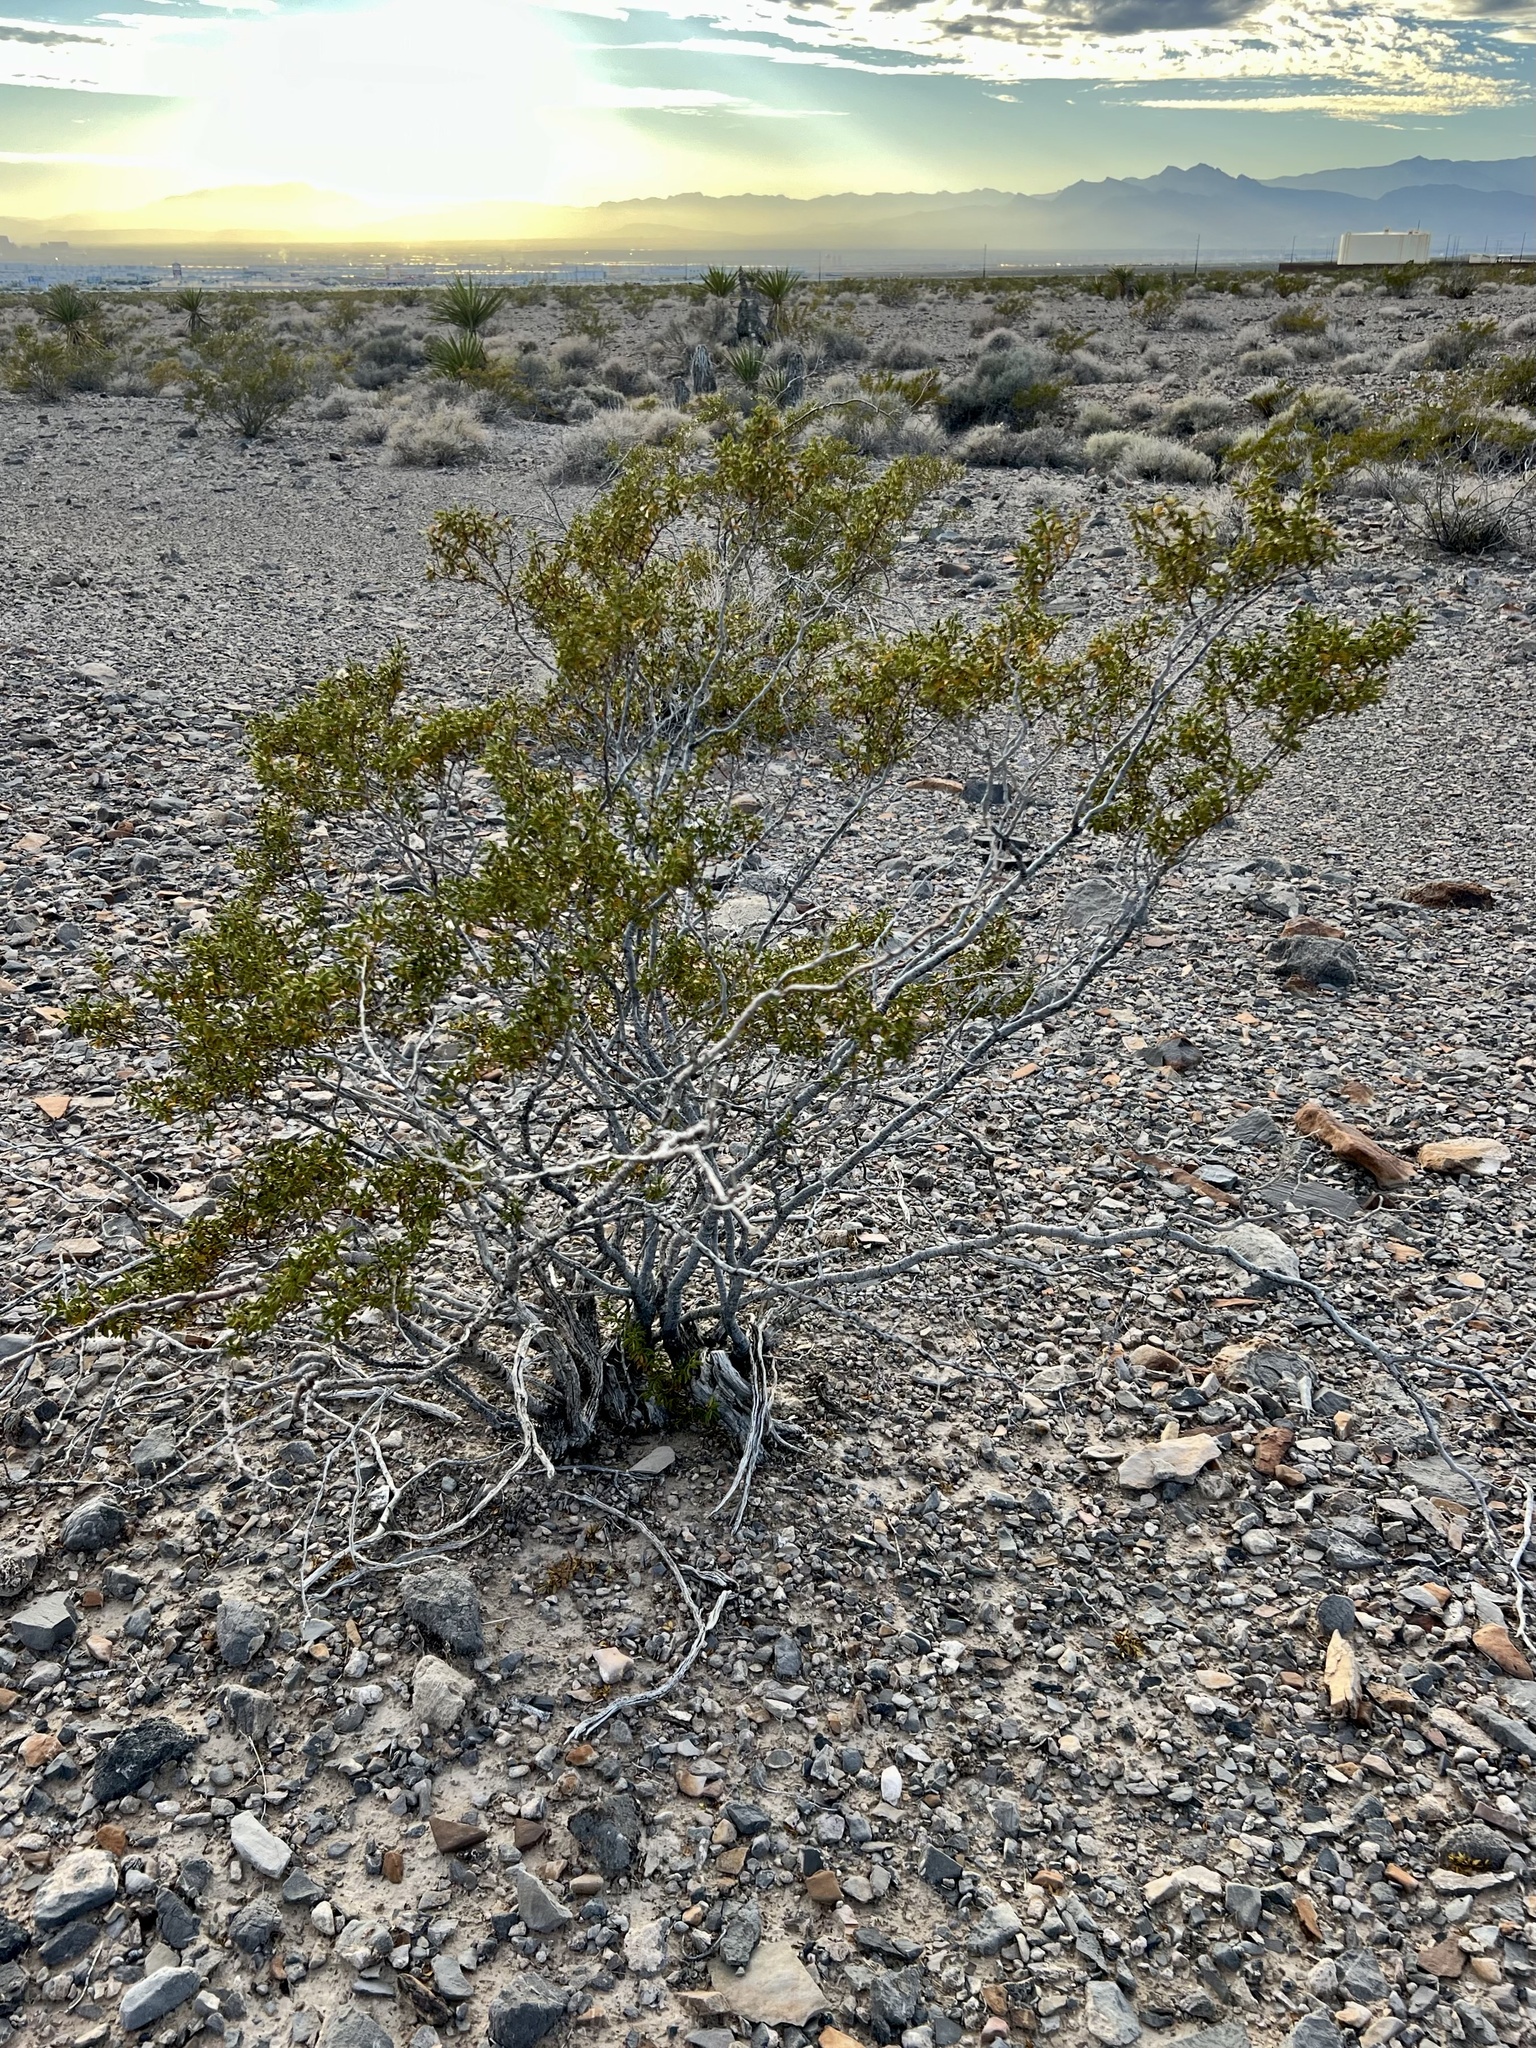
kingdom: Plantae
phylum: Tracheophyta
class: Magnoliopsida
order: Zygophyllales
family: Zygophyllaceae
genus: Larrea
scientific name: Larrea tridentata
